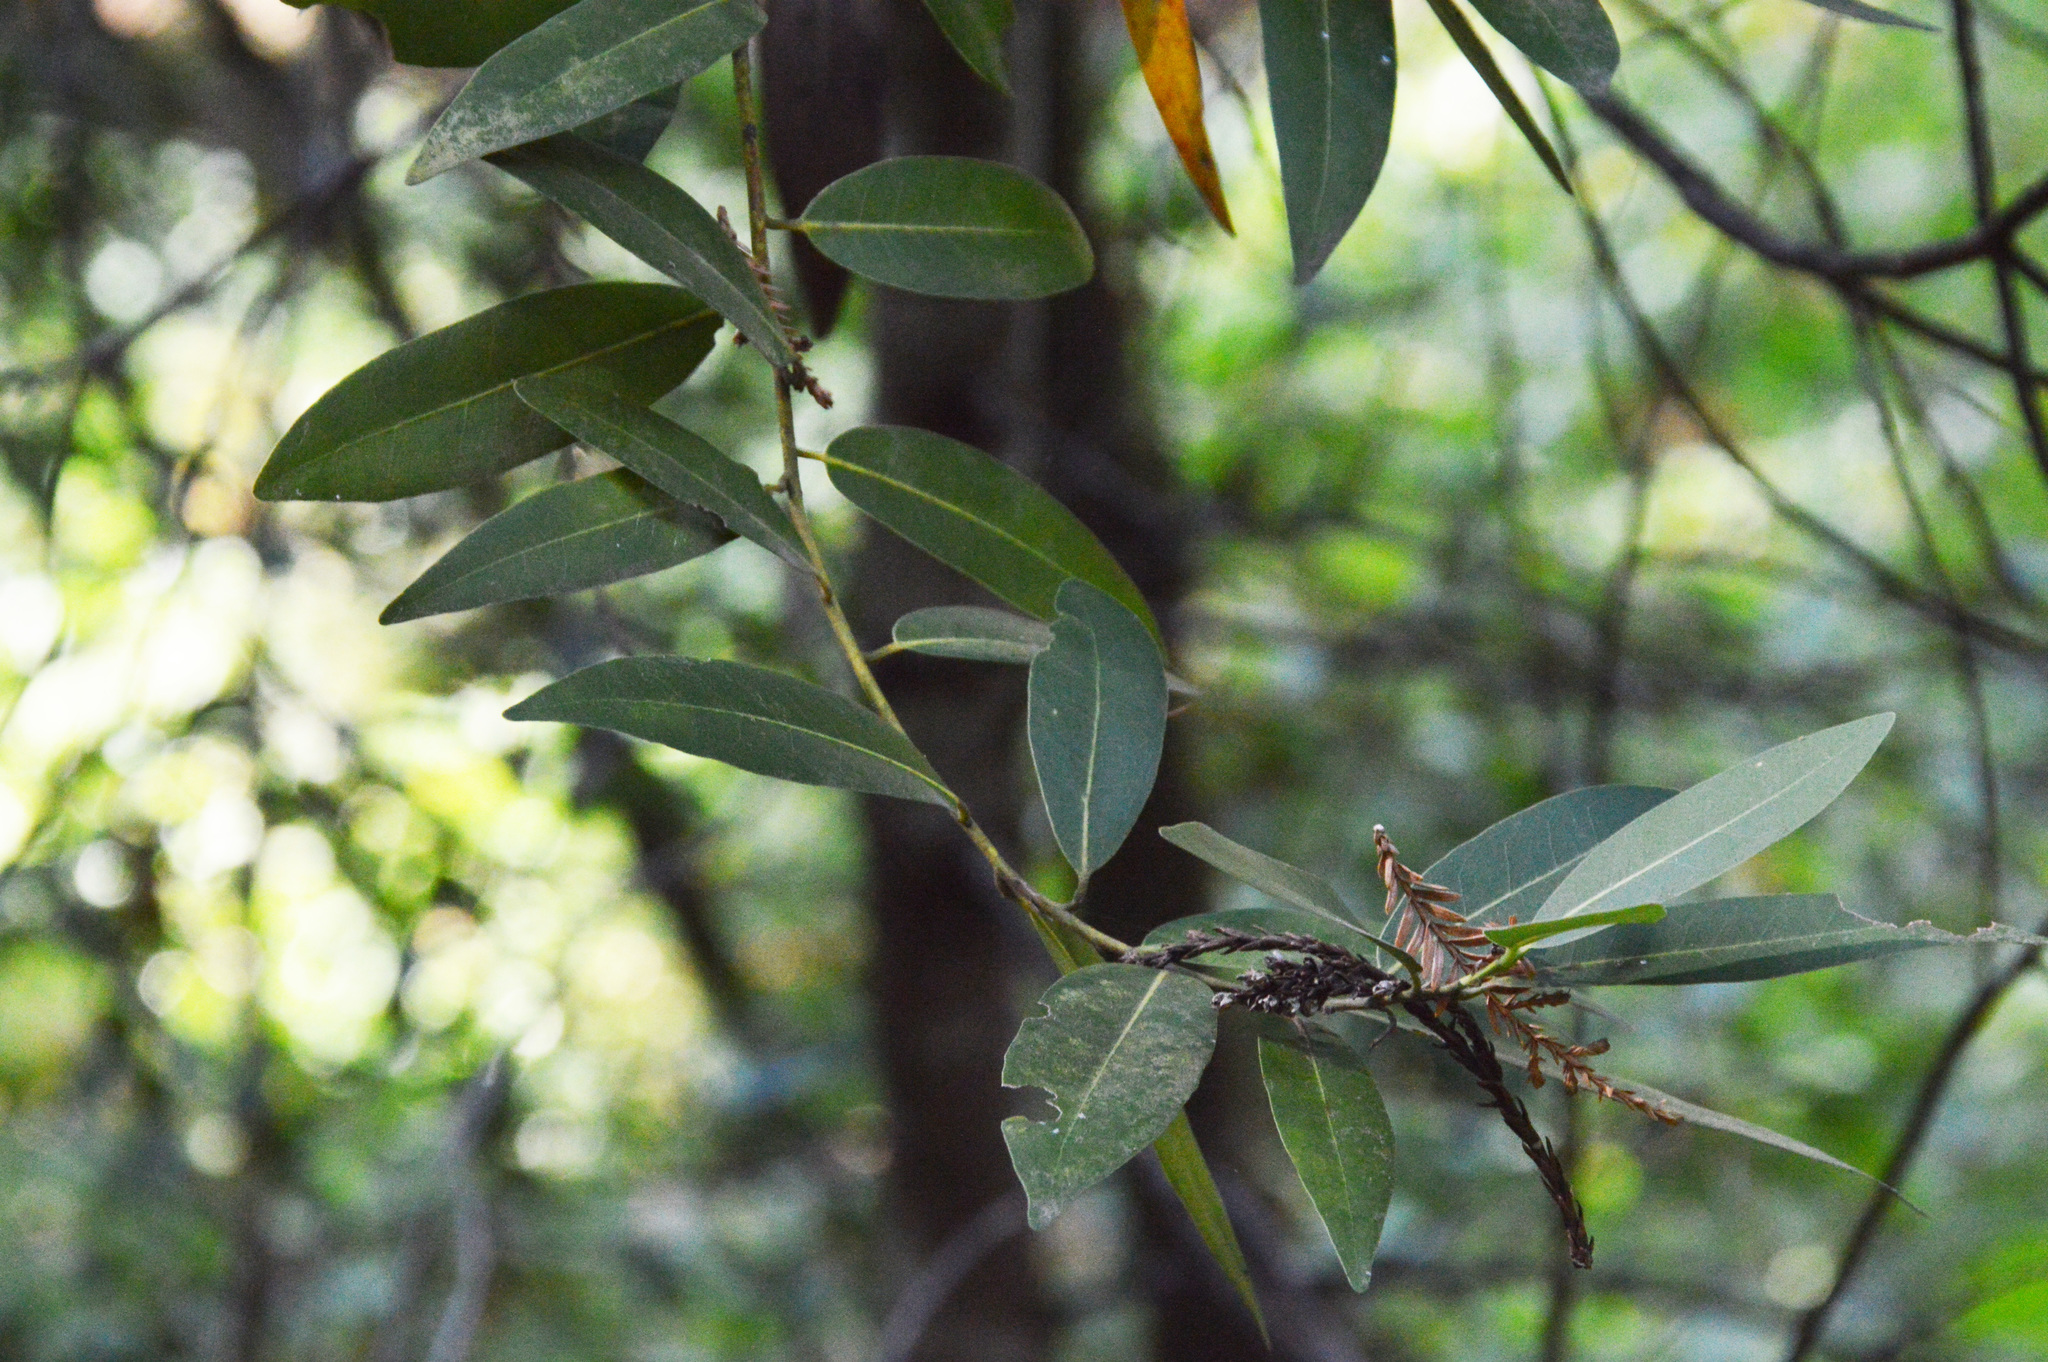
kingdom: Plantae
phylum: Tracheophyta
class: Magnoliopsida
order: Laurales
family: Lauraceae
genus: Umbellularia
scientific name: Umbellularia californica
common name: California bay
